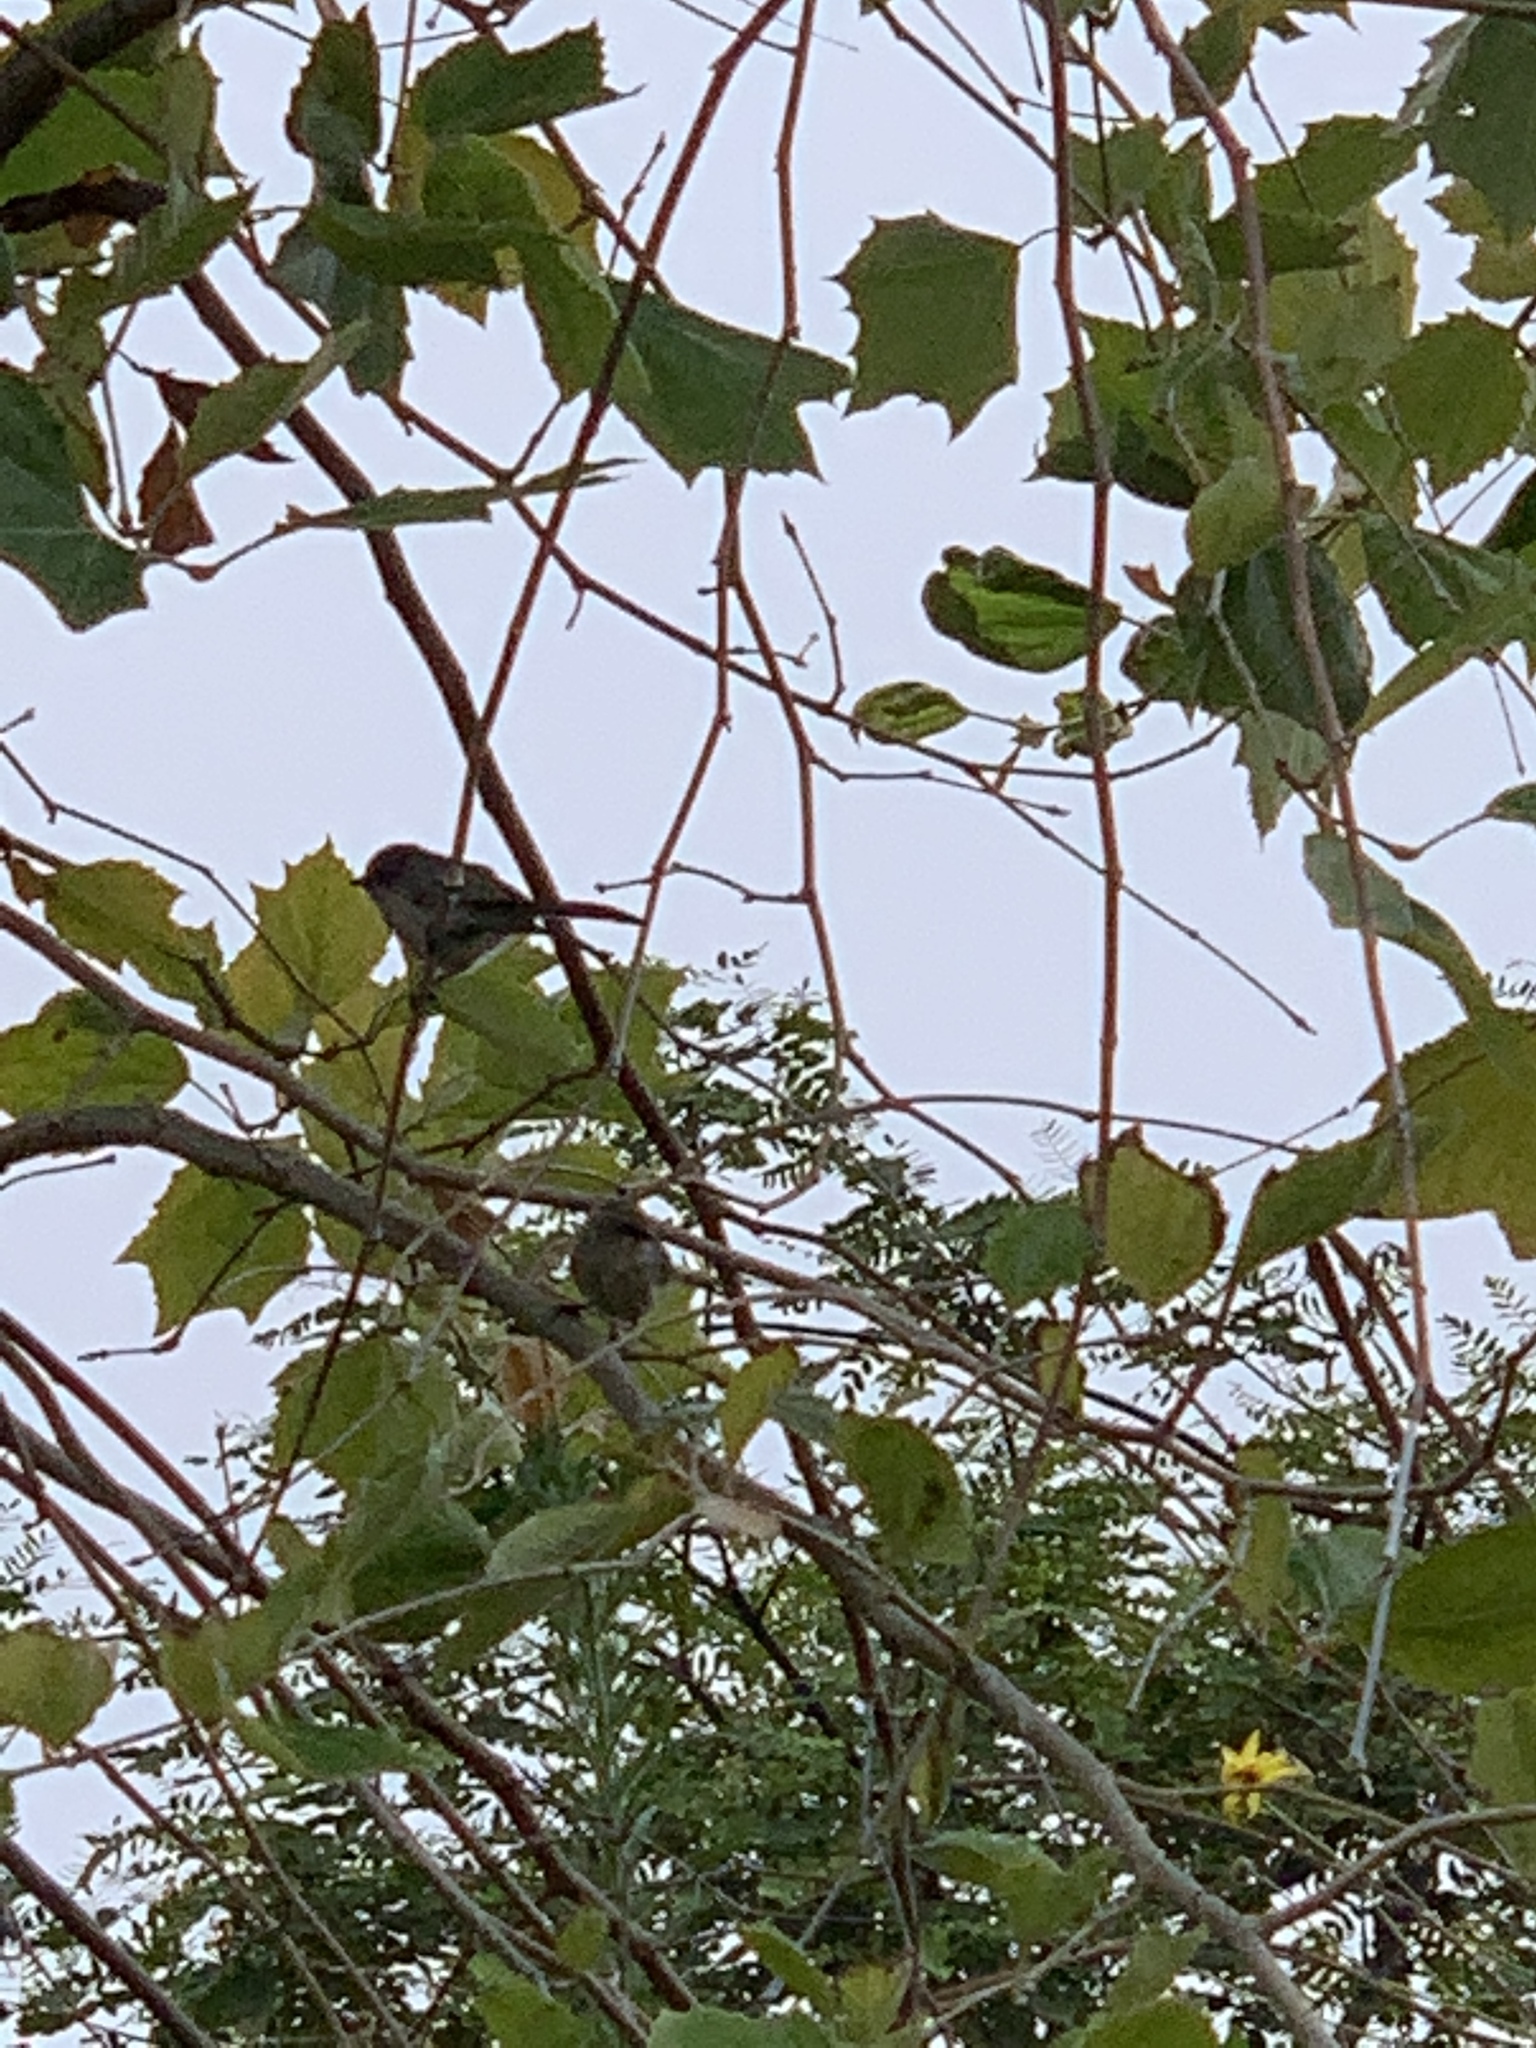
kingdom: Animalia
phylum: Chordata
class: Aves
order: Passeriformes
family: Aegithalidae
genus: Psaltriparus
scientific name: Psaltriparus minimus
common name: American bushtit
